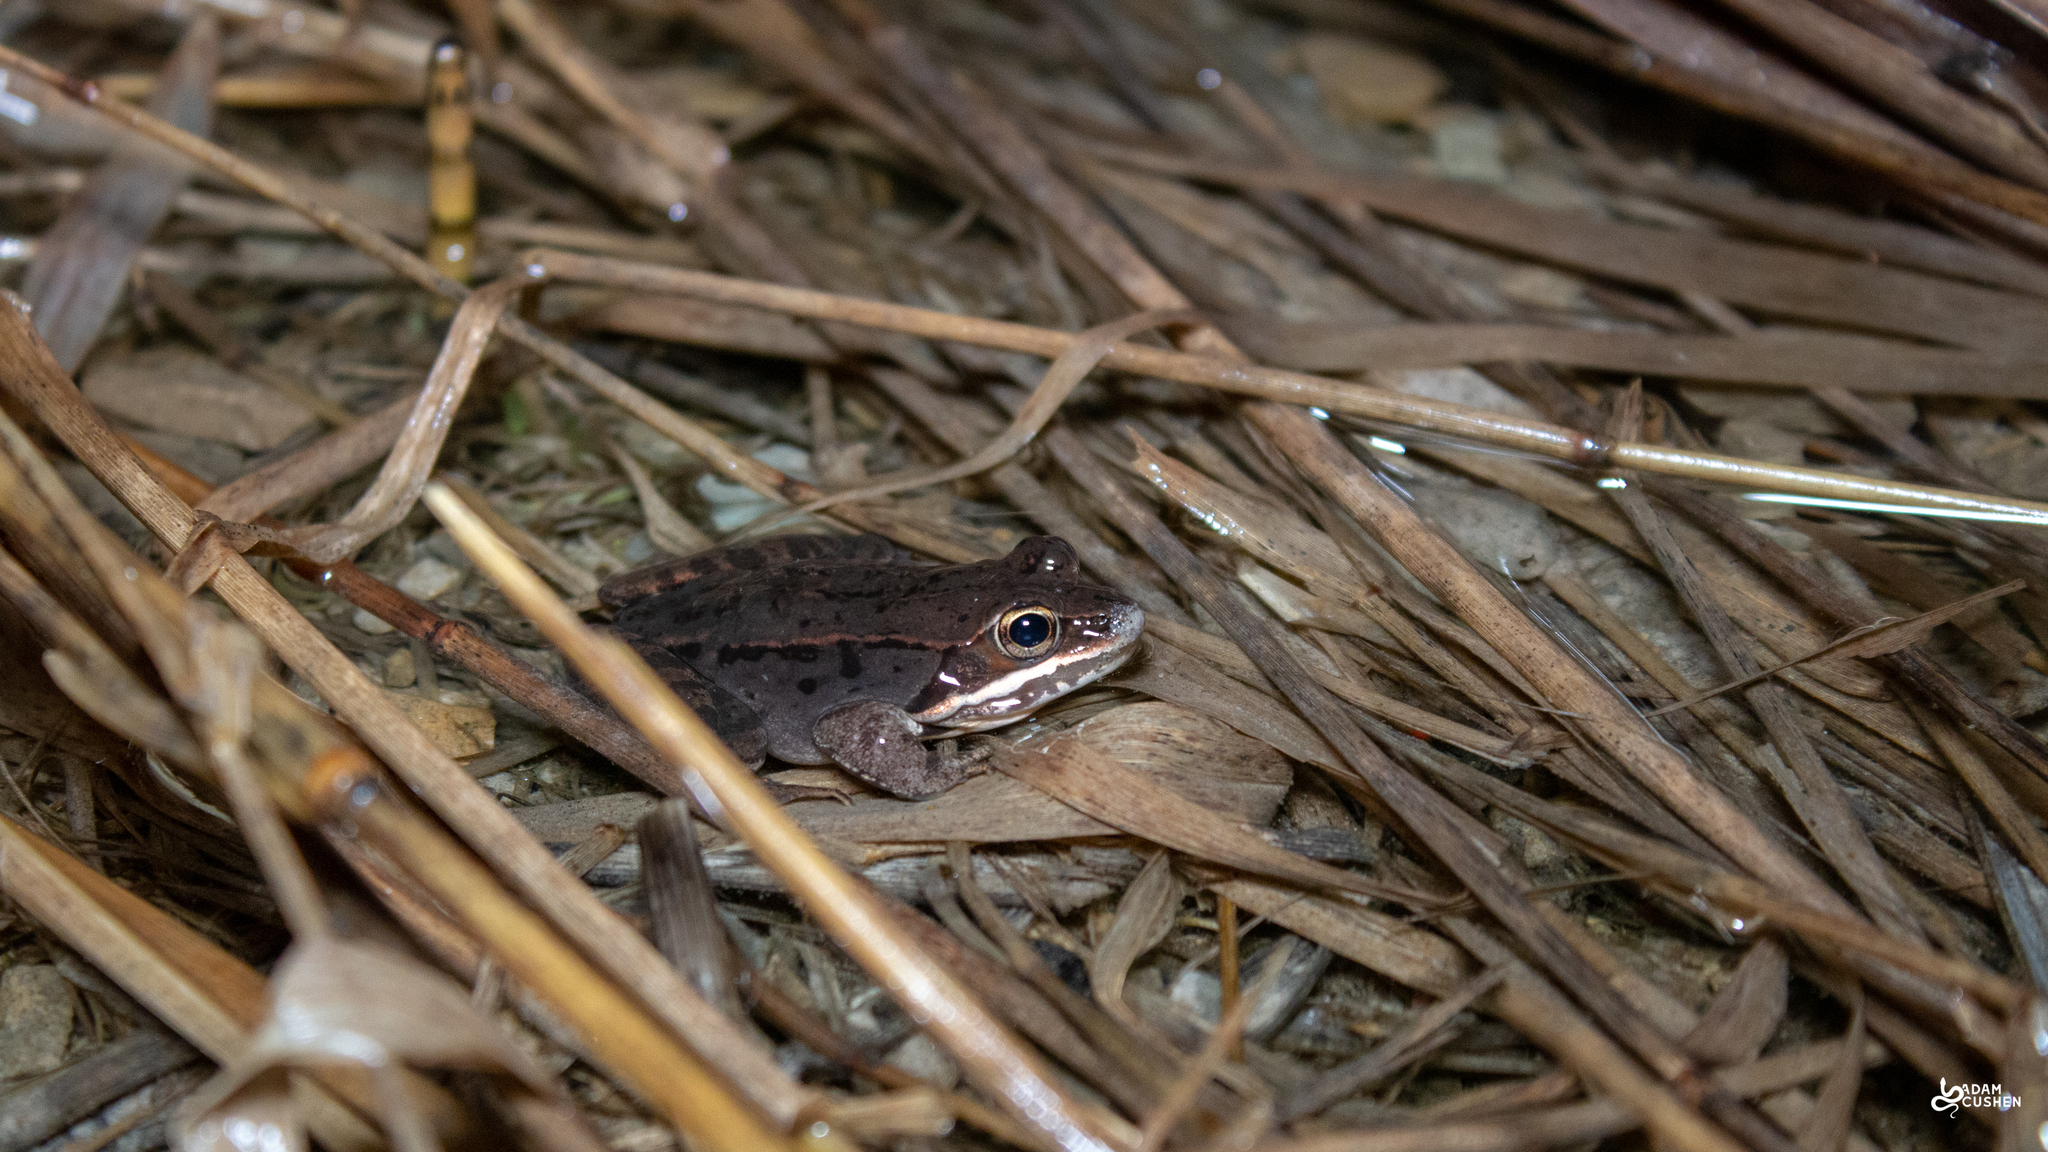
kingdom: Animalia
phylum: Chordata
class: Amphibia
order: Anura
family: Ranidae
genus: Lithobates
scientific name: Lithobates sylvaticus
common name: Wood frog
